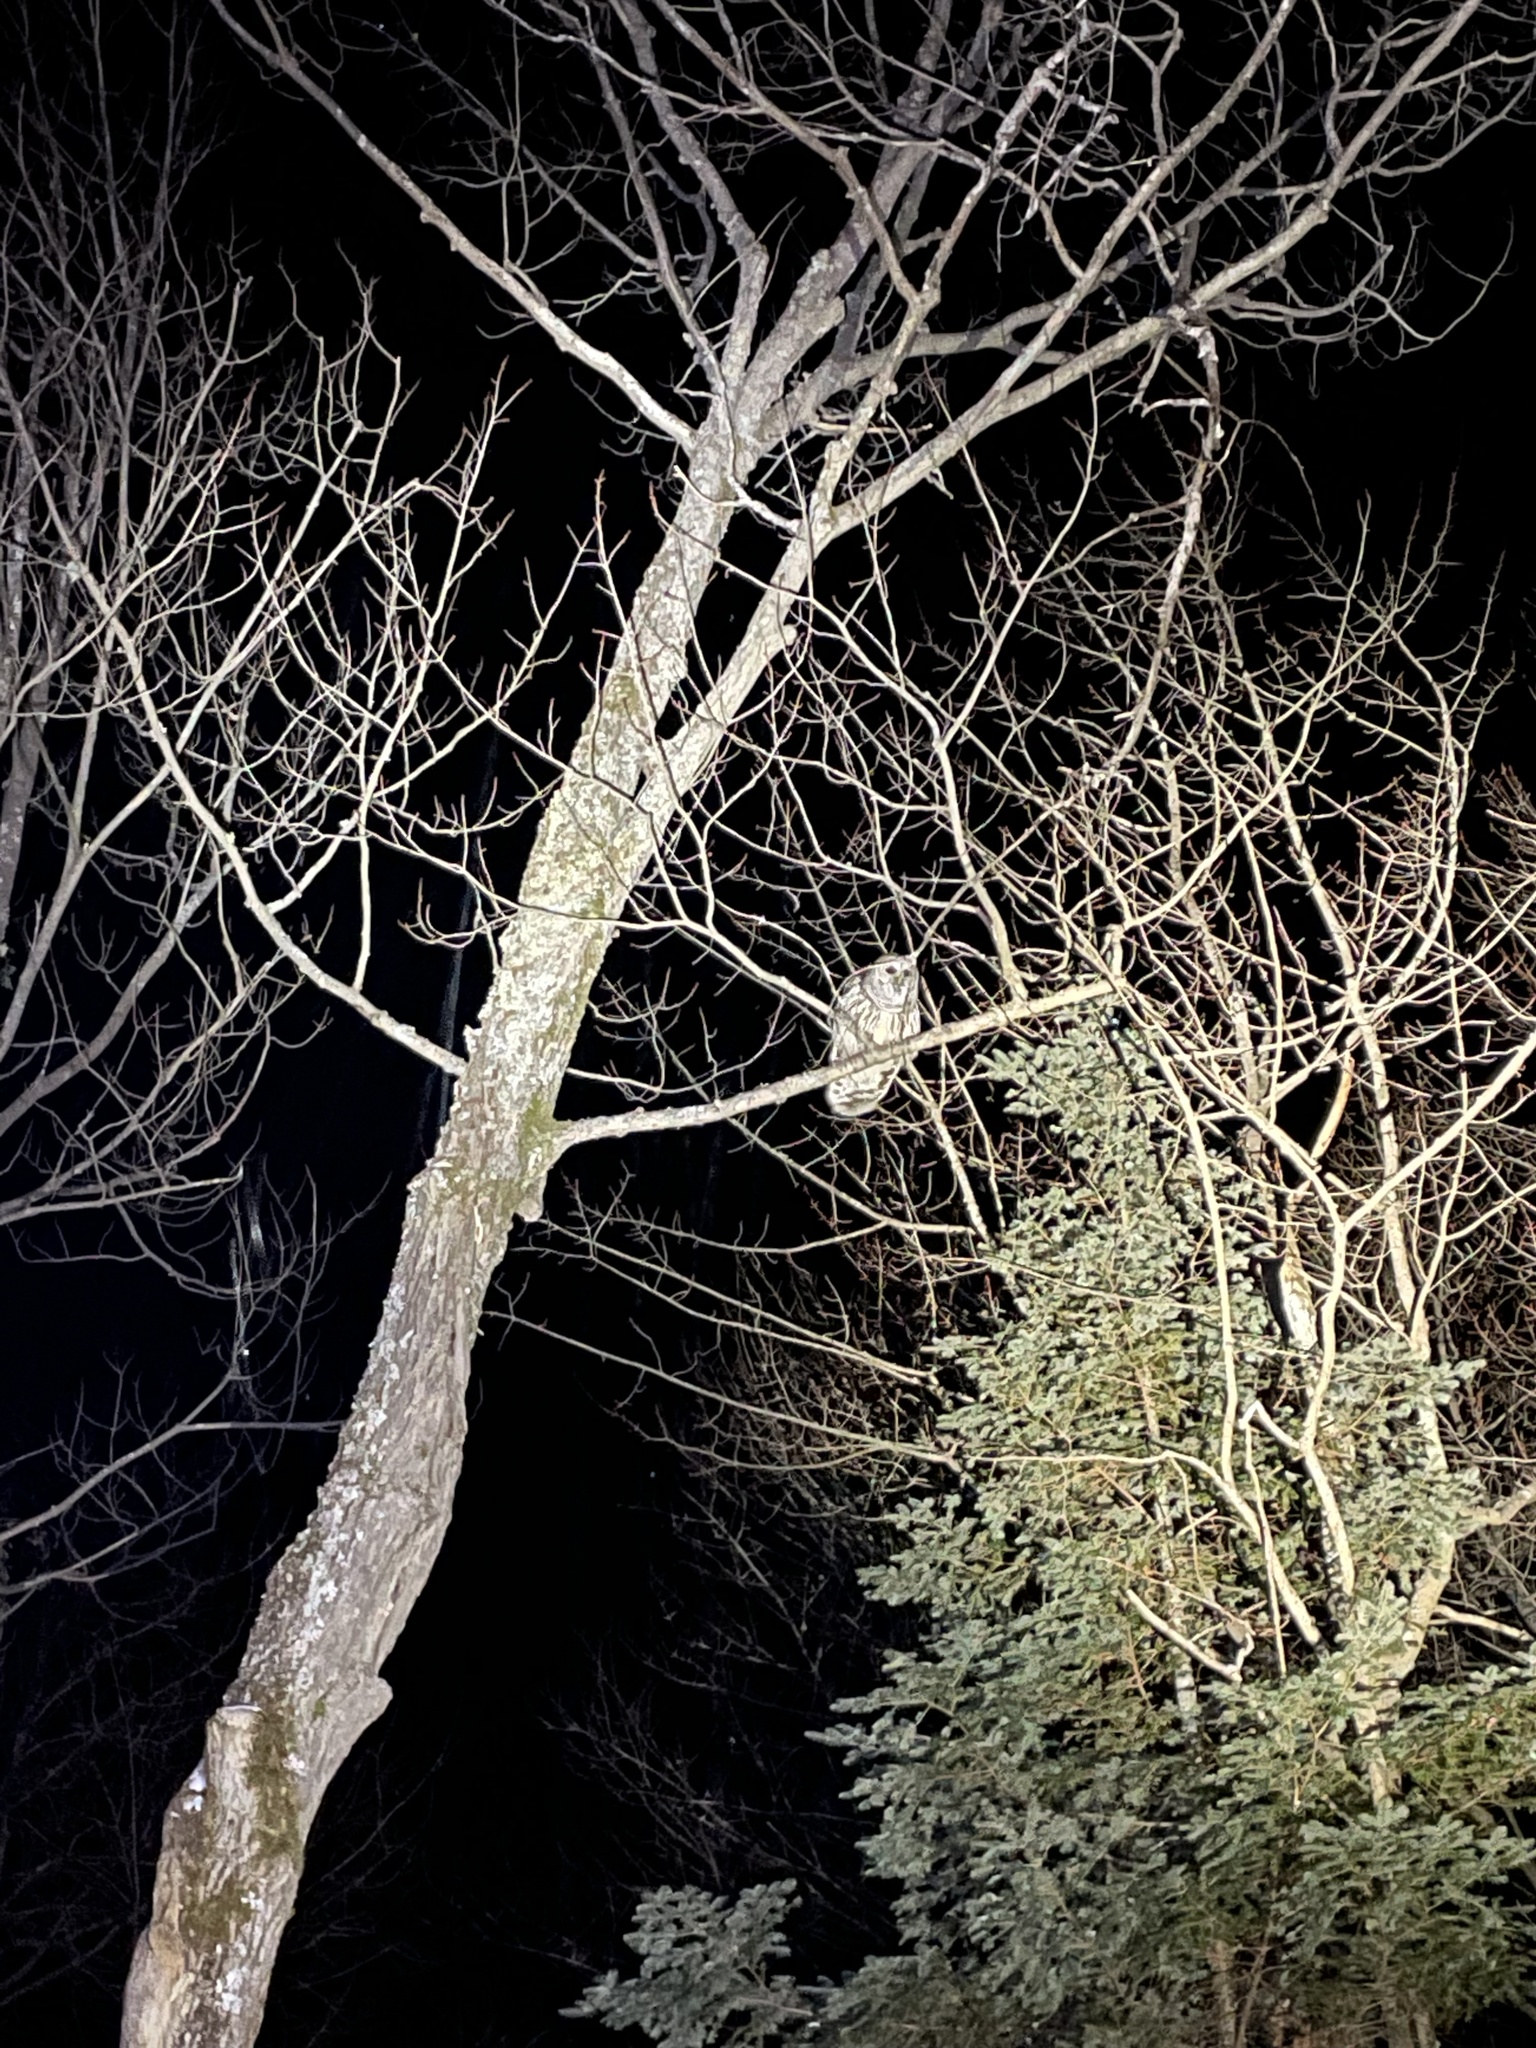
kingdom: Animalia
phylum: Chordata
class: Aves
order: Strigiformes
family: Strigidae
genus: Strix
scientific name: Strix varia
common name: Barred owl
